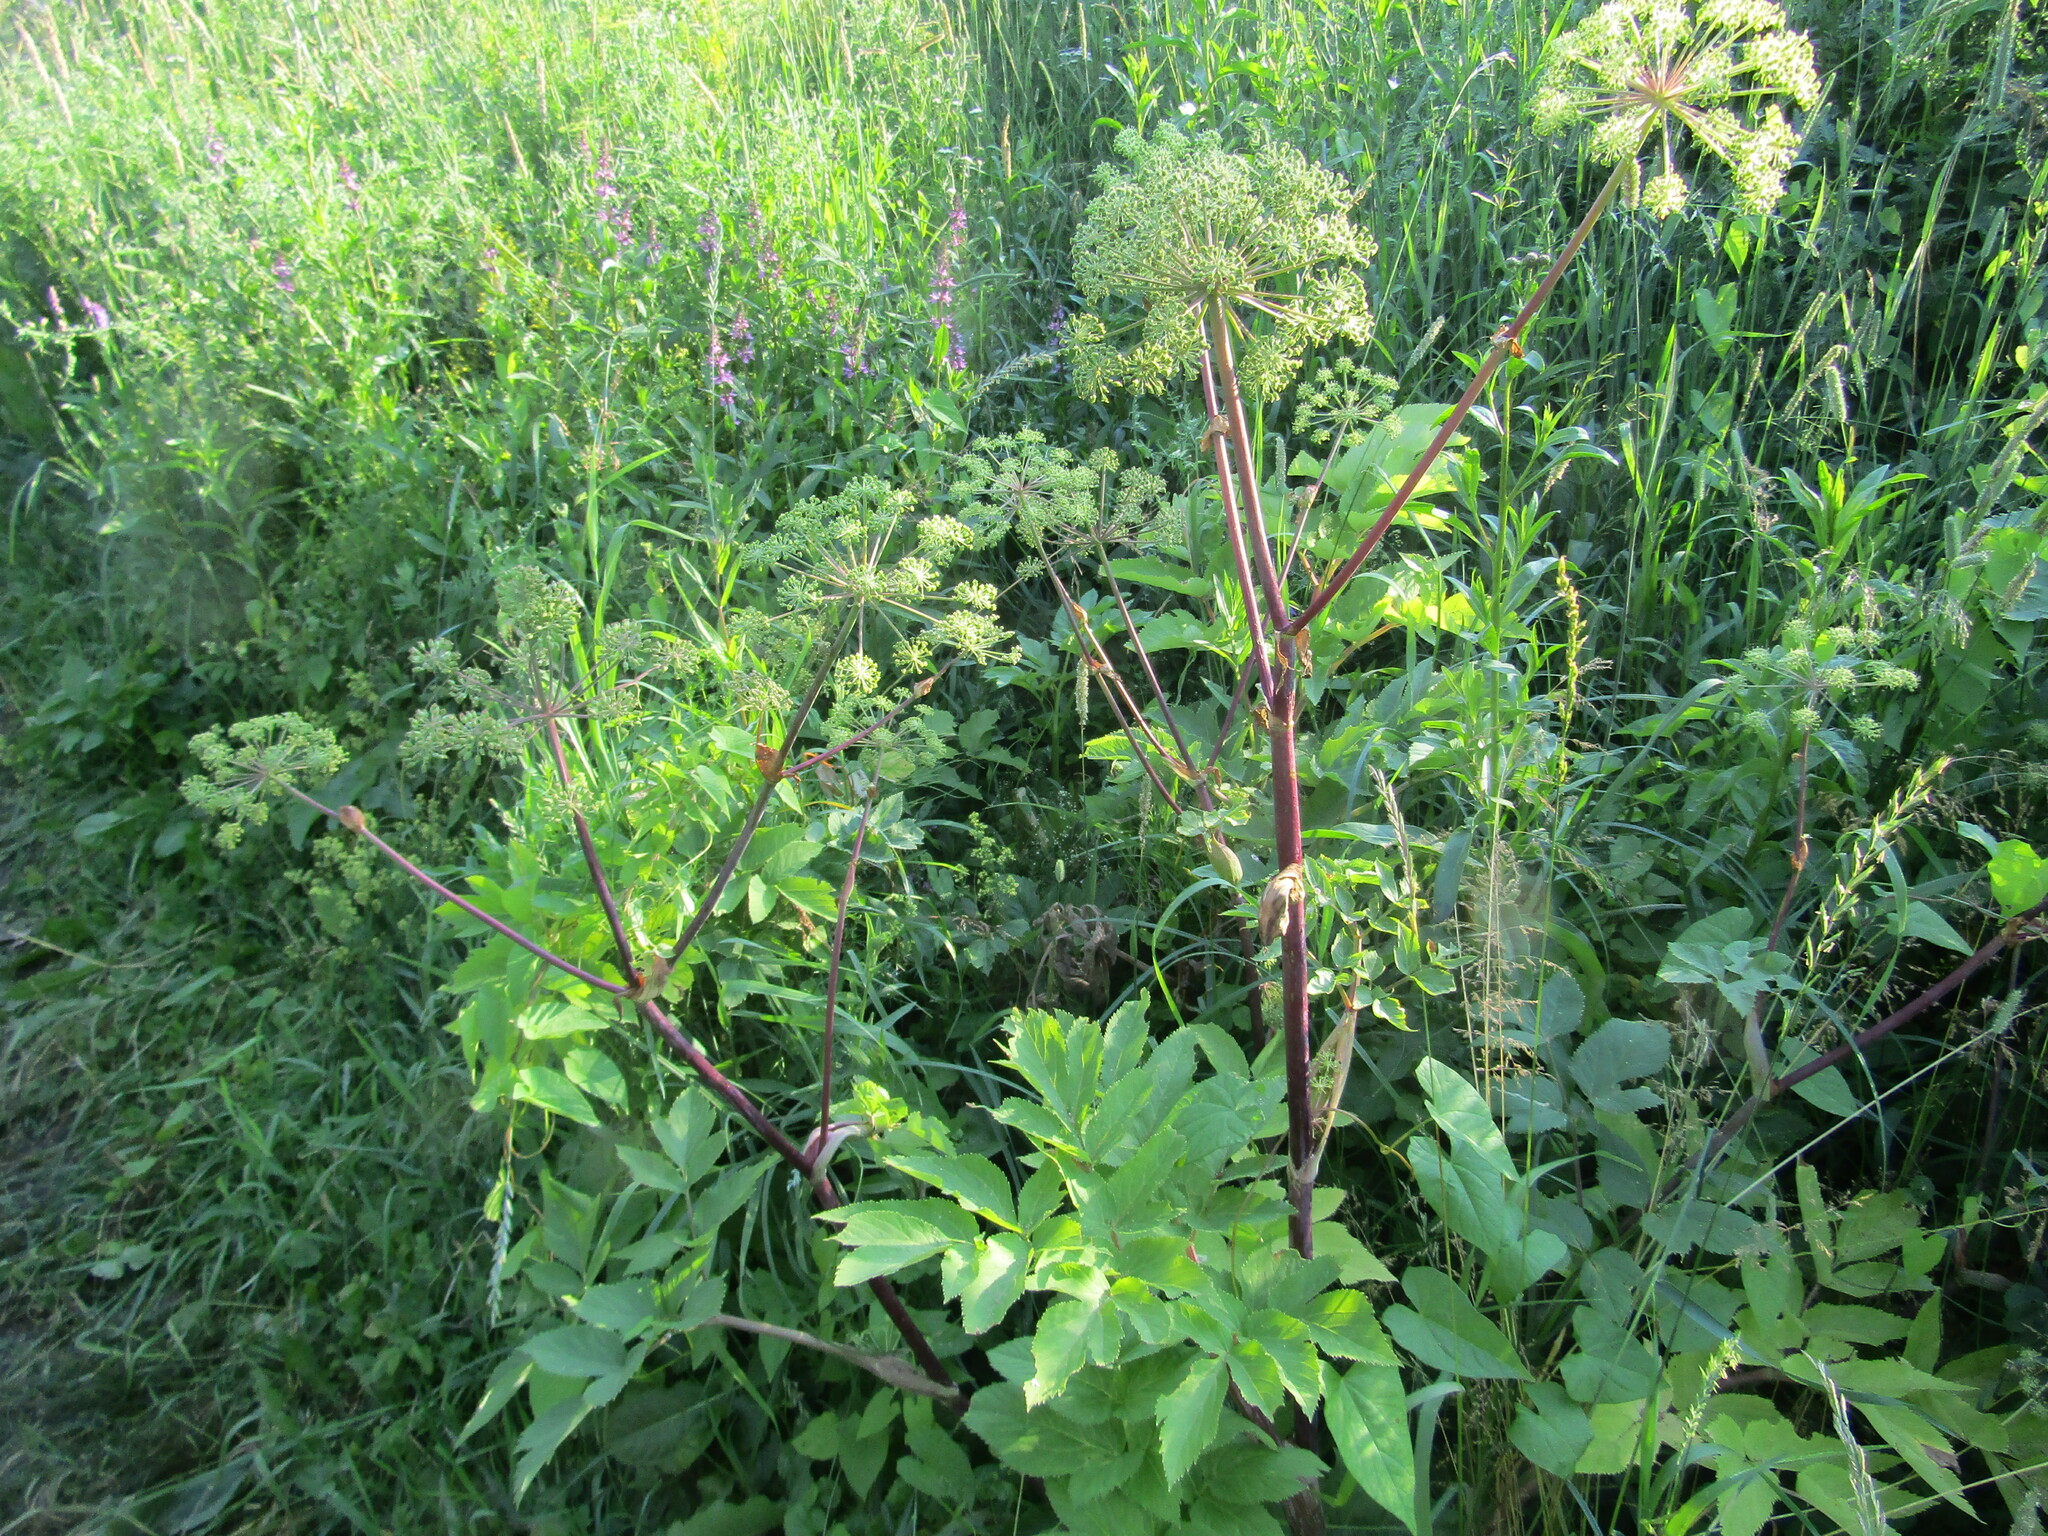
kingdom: Plantae
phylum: Tracheophyta
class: Magnoliopsida
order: Apiales
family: Apiaceae
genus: Angelica
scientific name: Angelica archangelica
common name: Garden angelica
